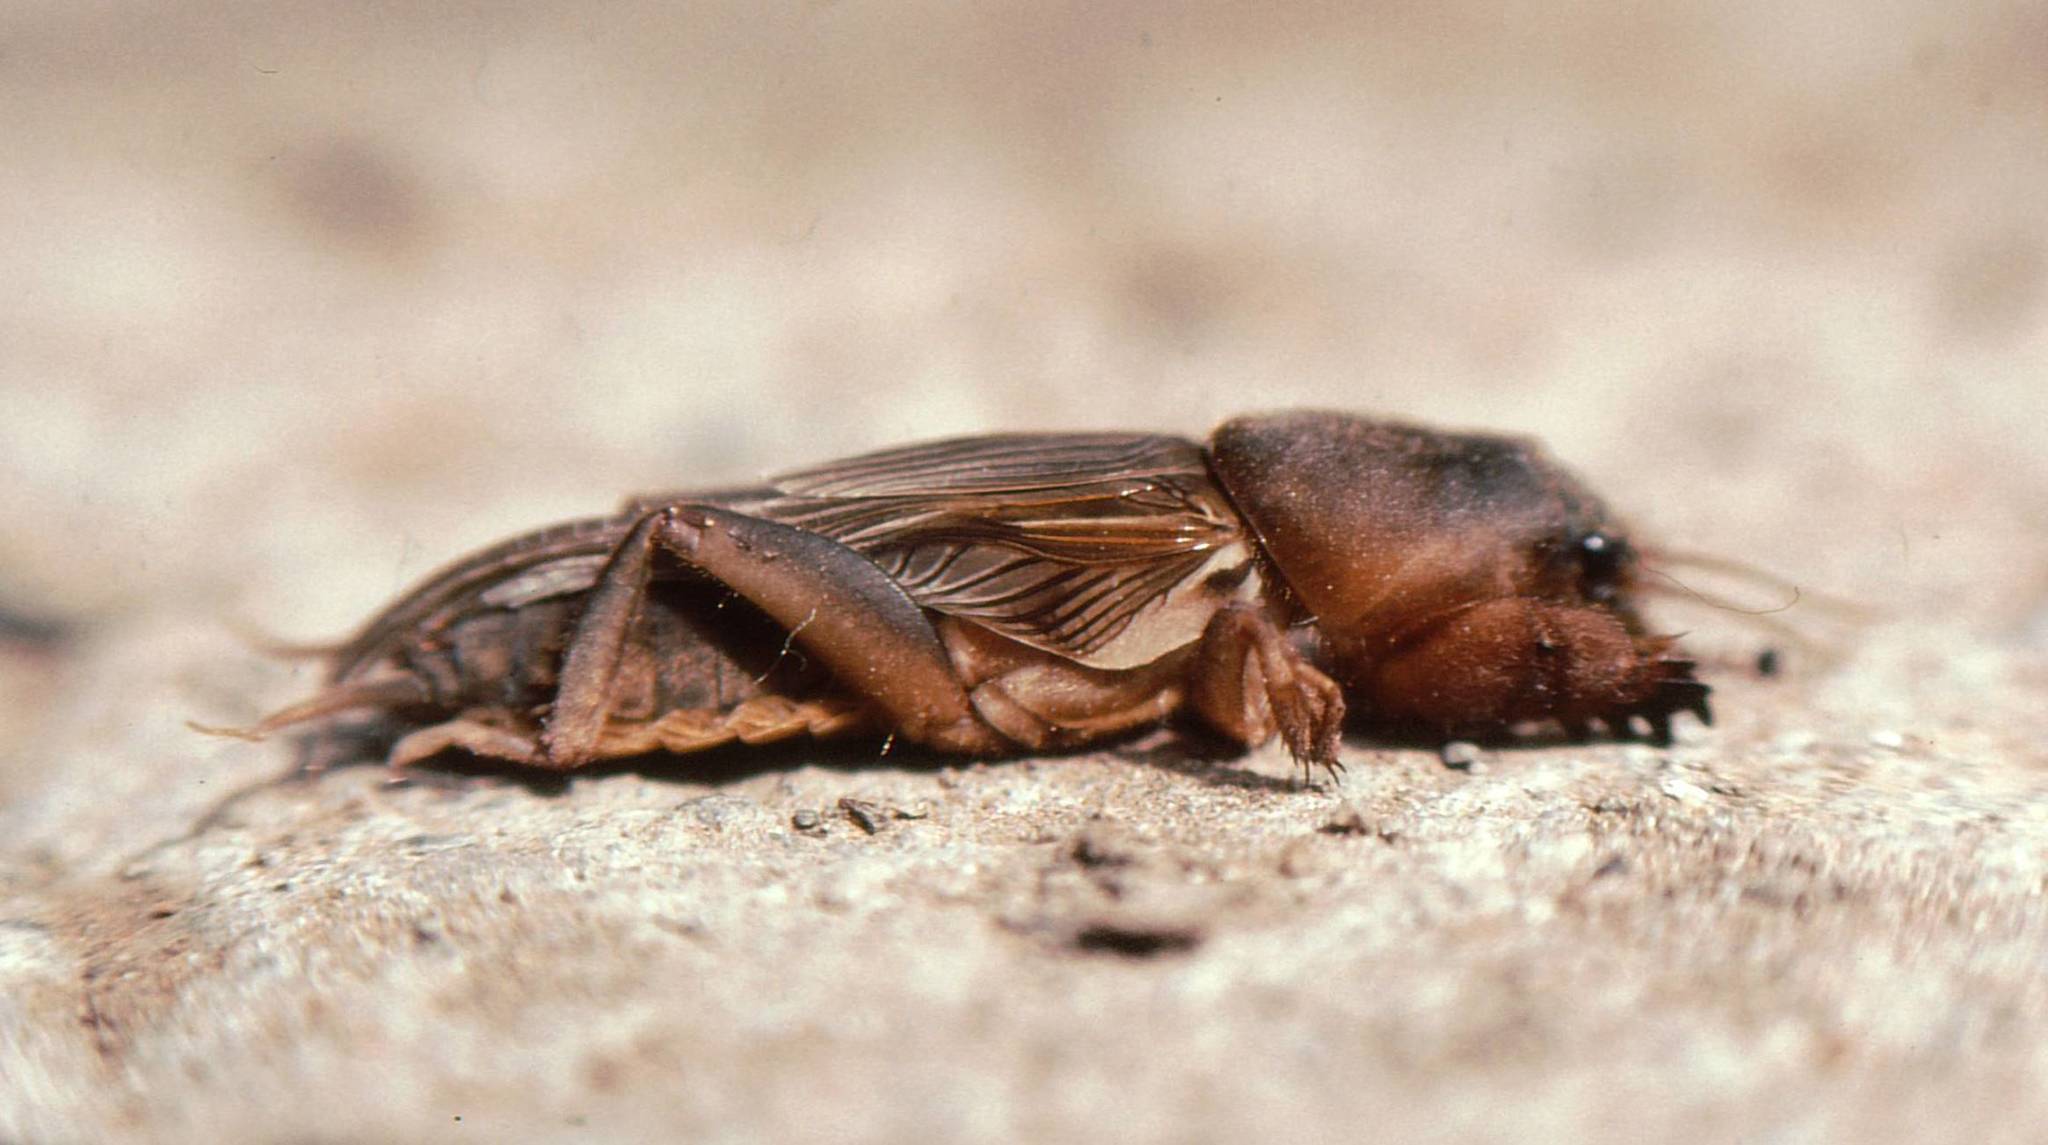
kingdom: Animalia
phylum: Arthropoda
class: Insecta
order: Orthoptera
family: Gryllotalpidae
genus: Gryllotalpa
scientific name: Gryllotalpa africana
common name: African mole cricket
